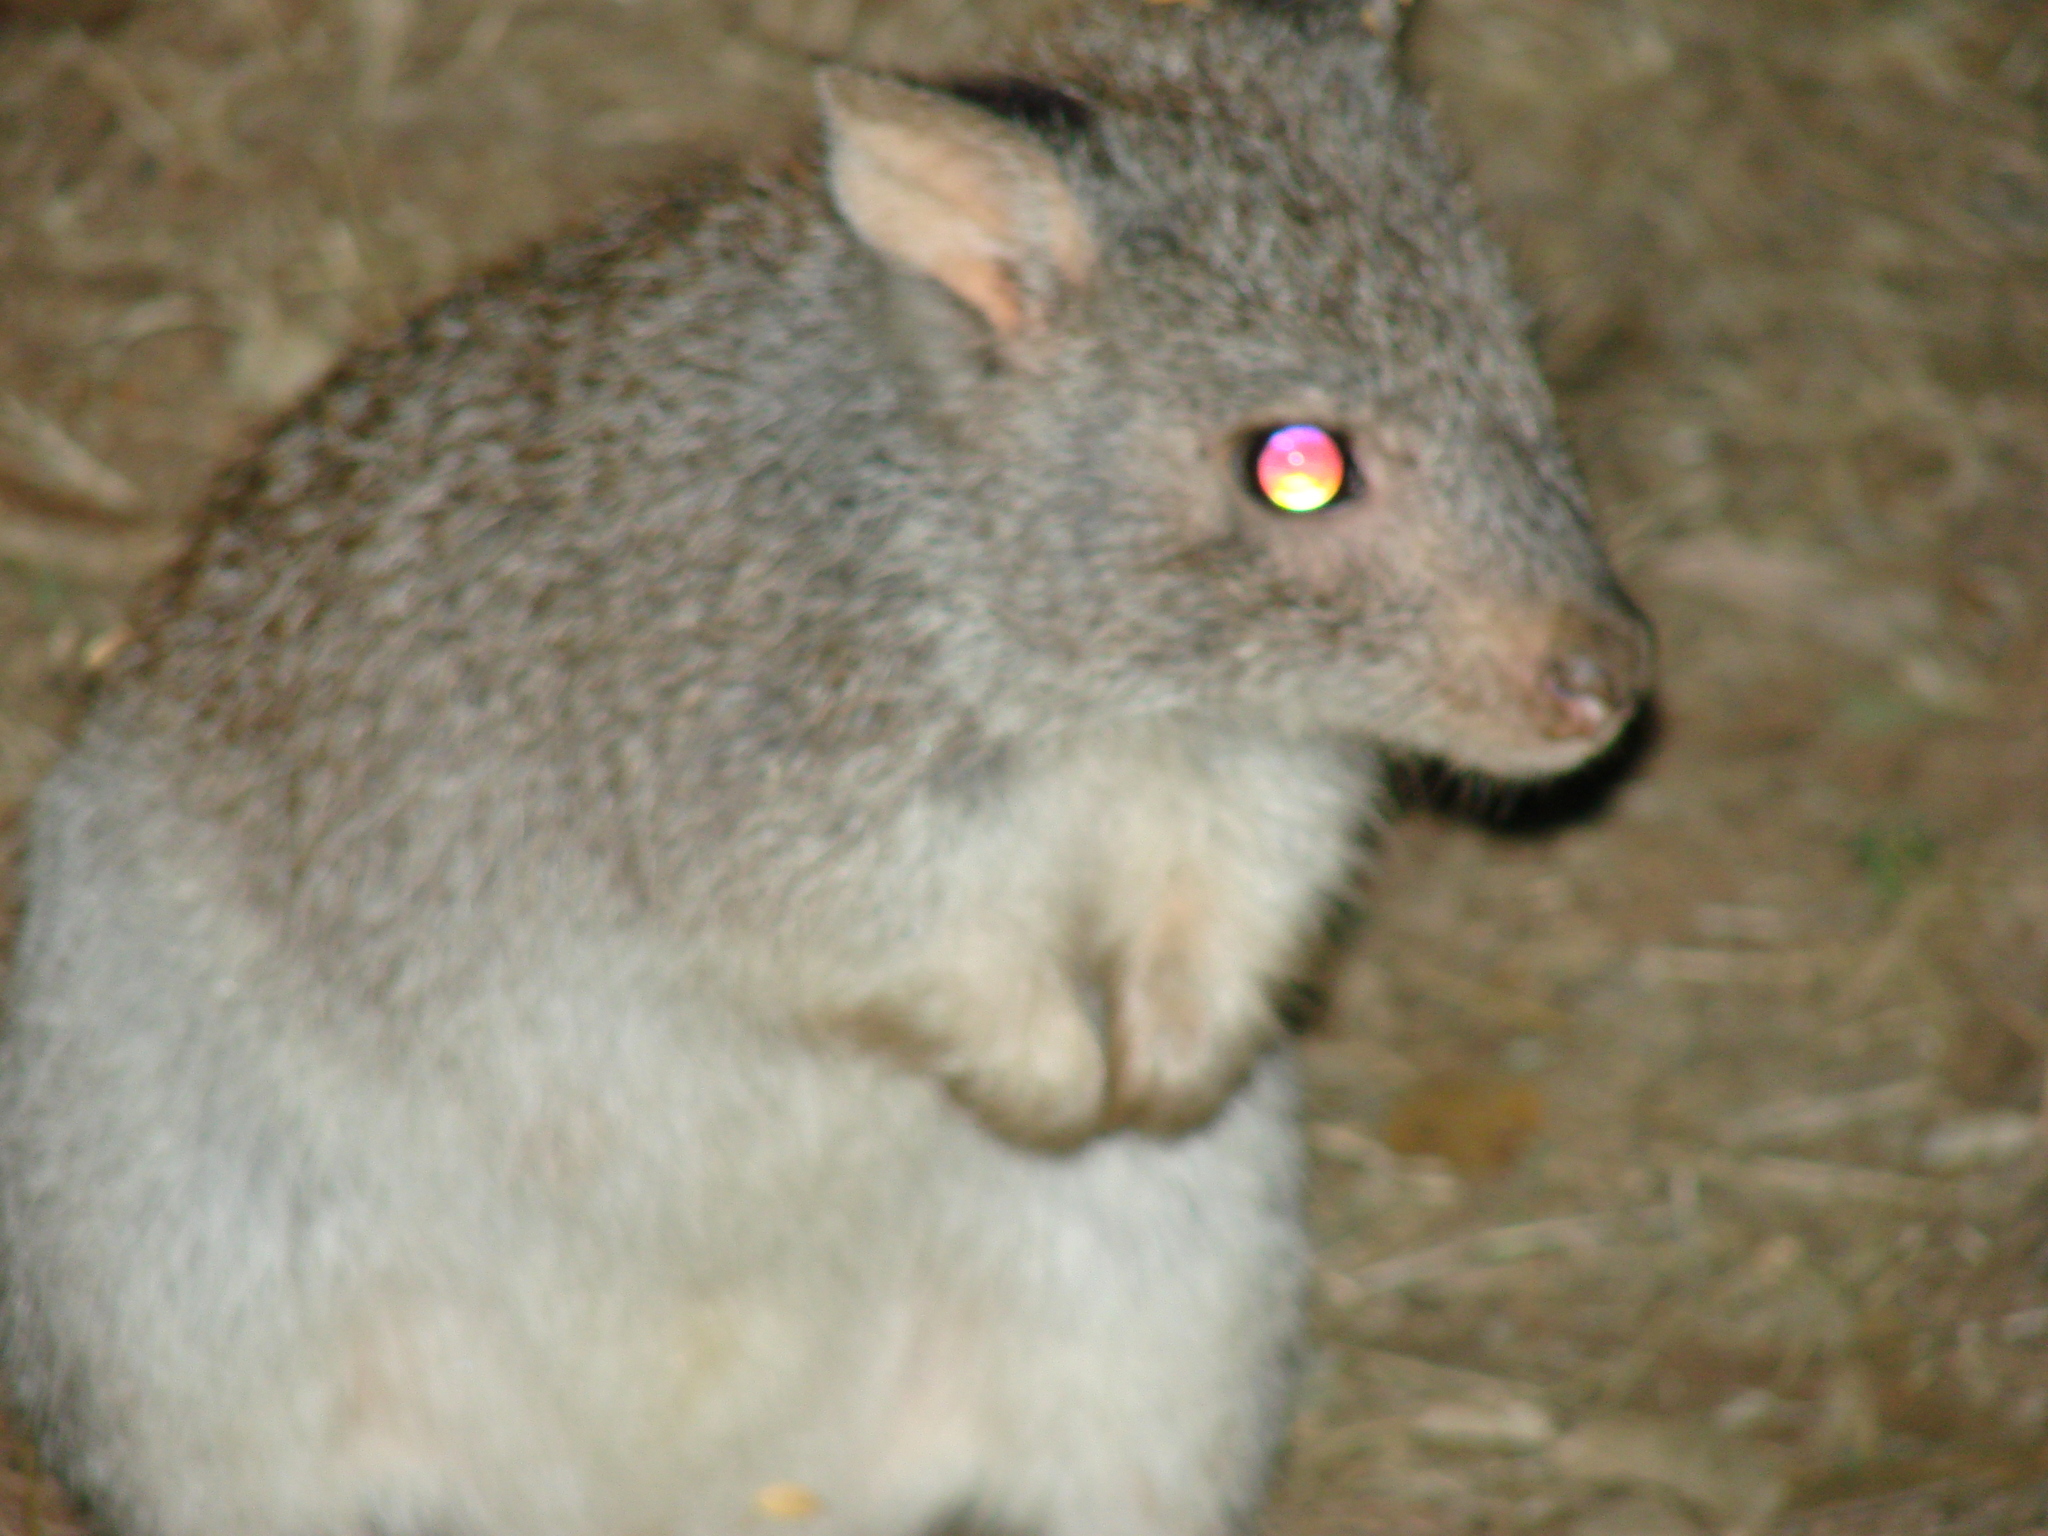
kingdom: Animalia
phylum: Chordata
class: Mammalia
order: Diprotodontia
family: Potoroidae
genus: Aepyprymnus
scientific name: Aepyprymnus rufescens
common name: Rufous rat-kangaroo
